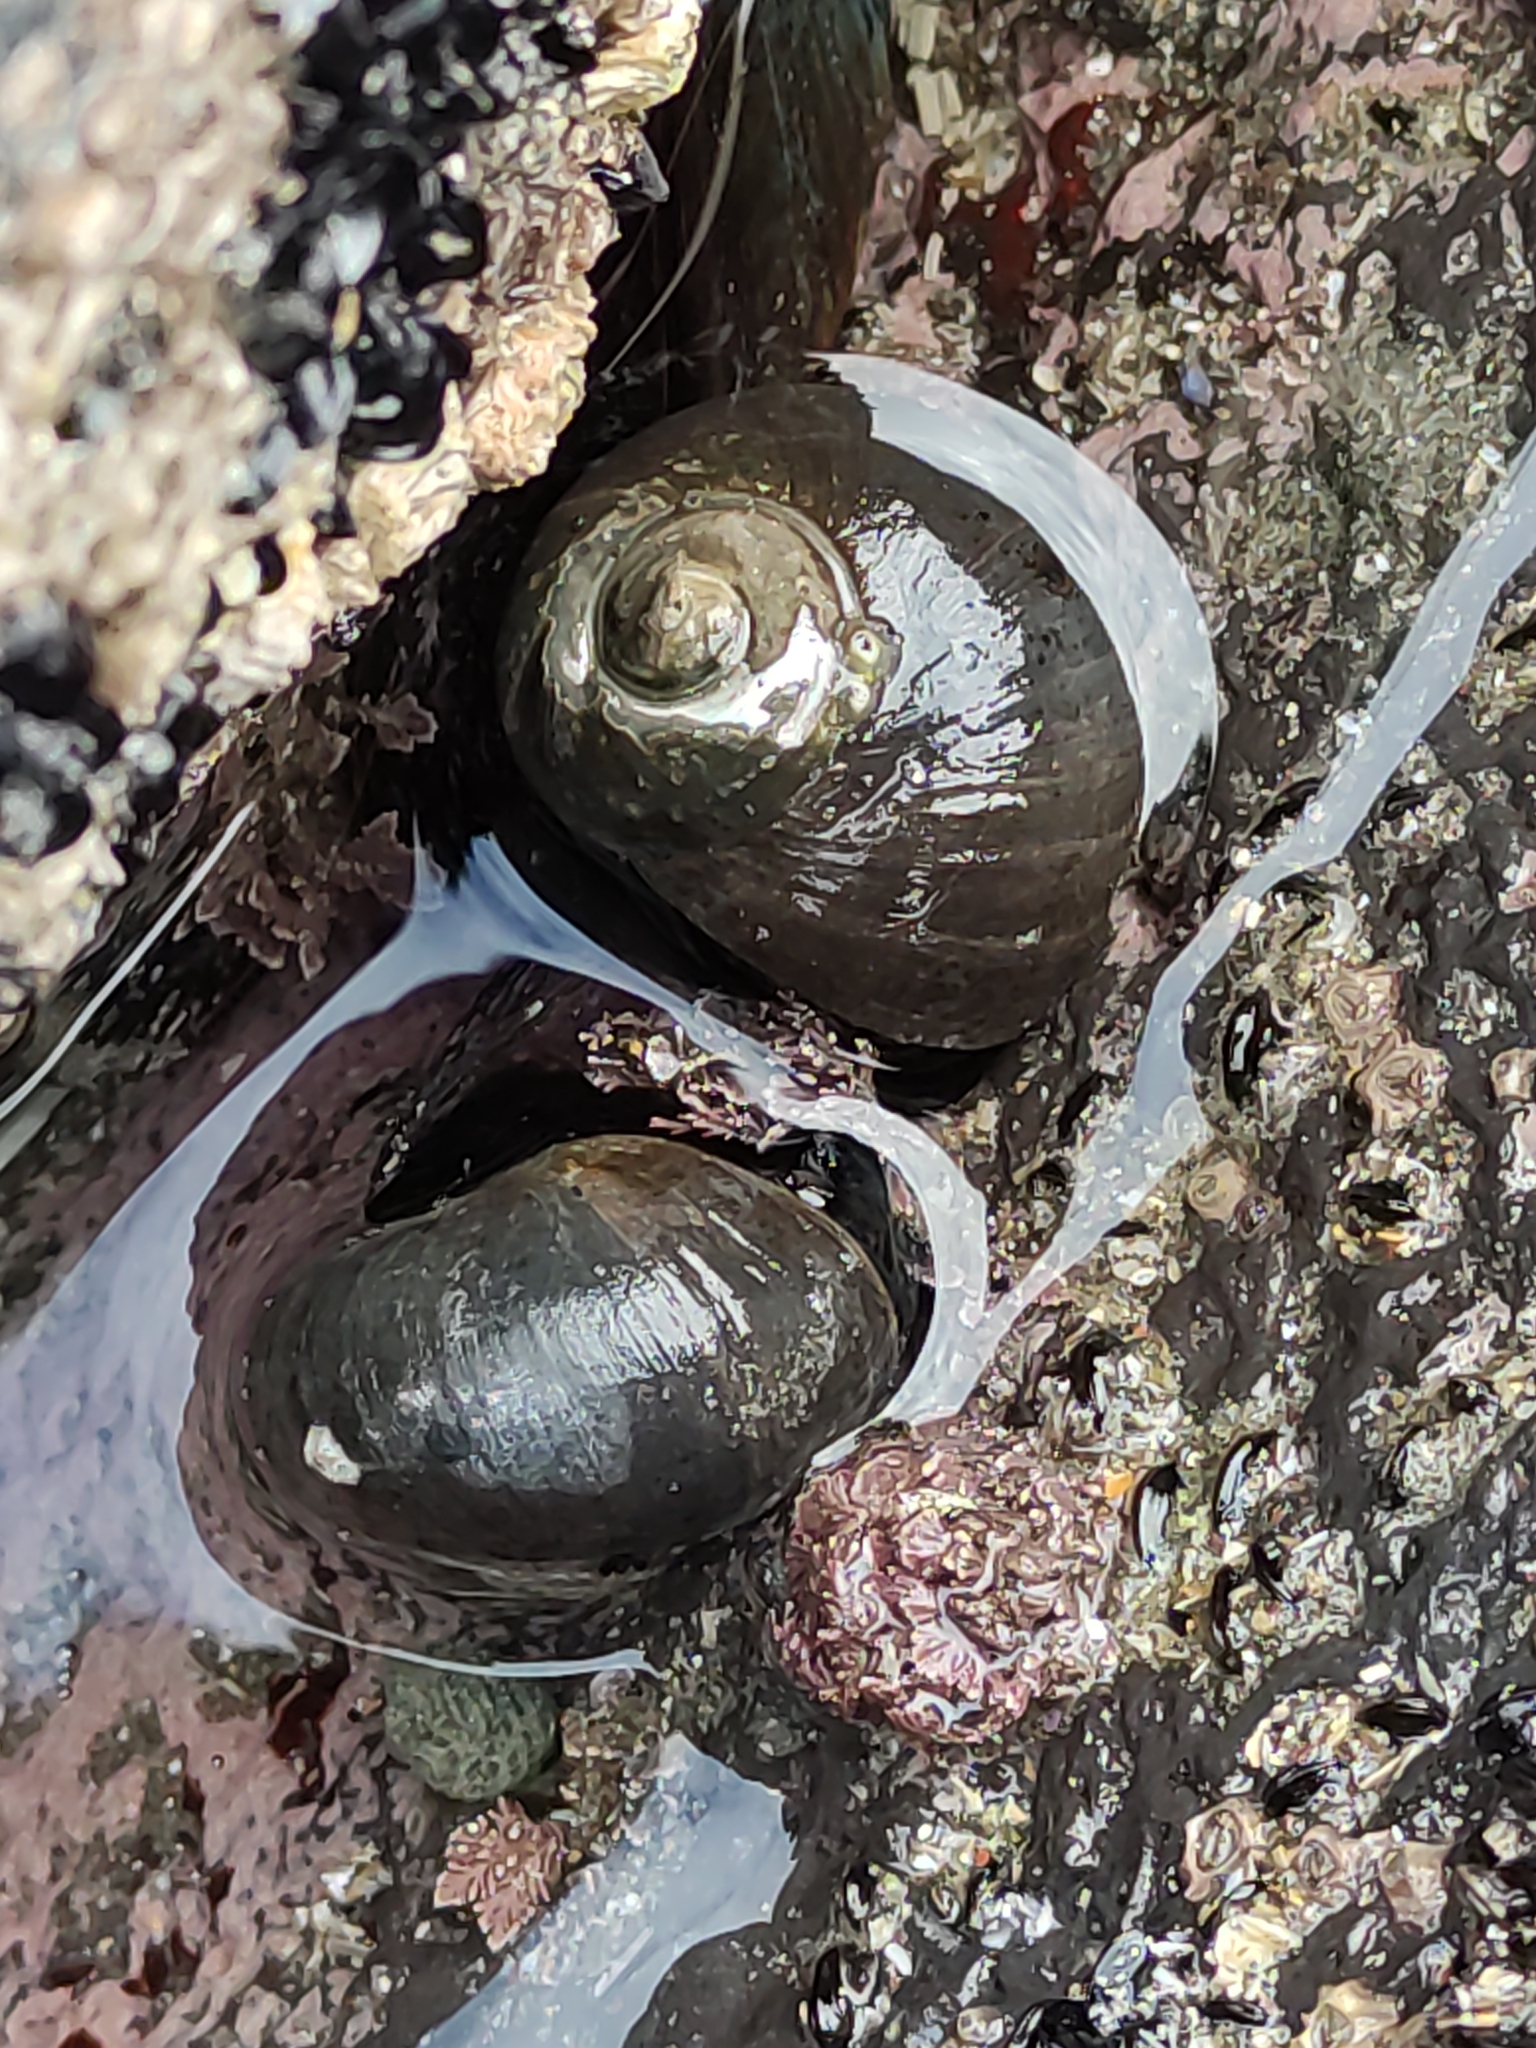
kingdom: Animalia
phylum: Mollusca
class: Gastropoda
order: Trochida
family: Turbinidae
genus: Lunella
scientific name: Lunella smaragda
